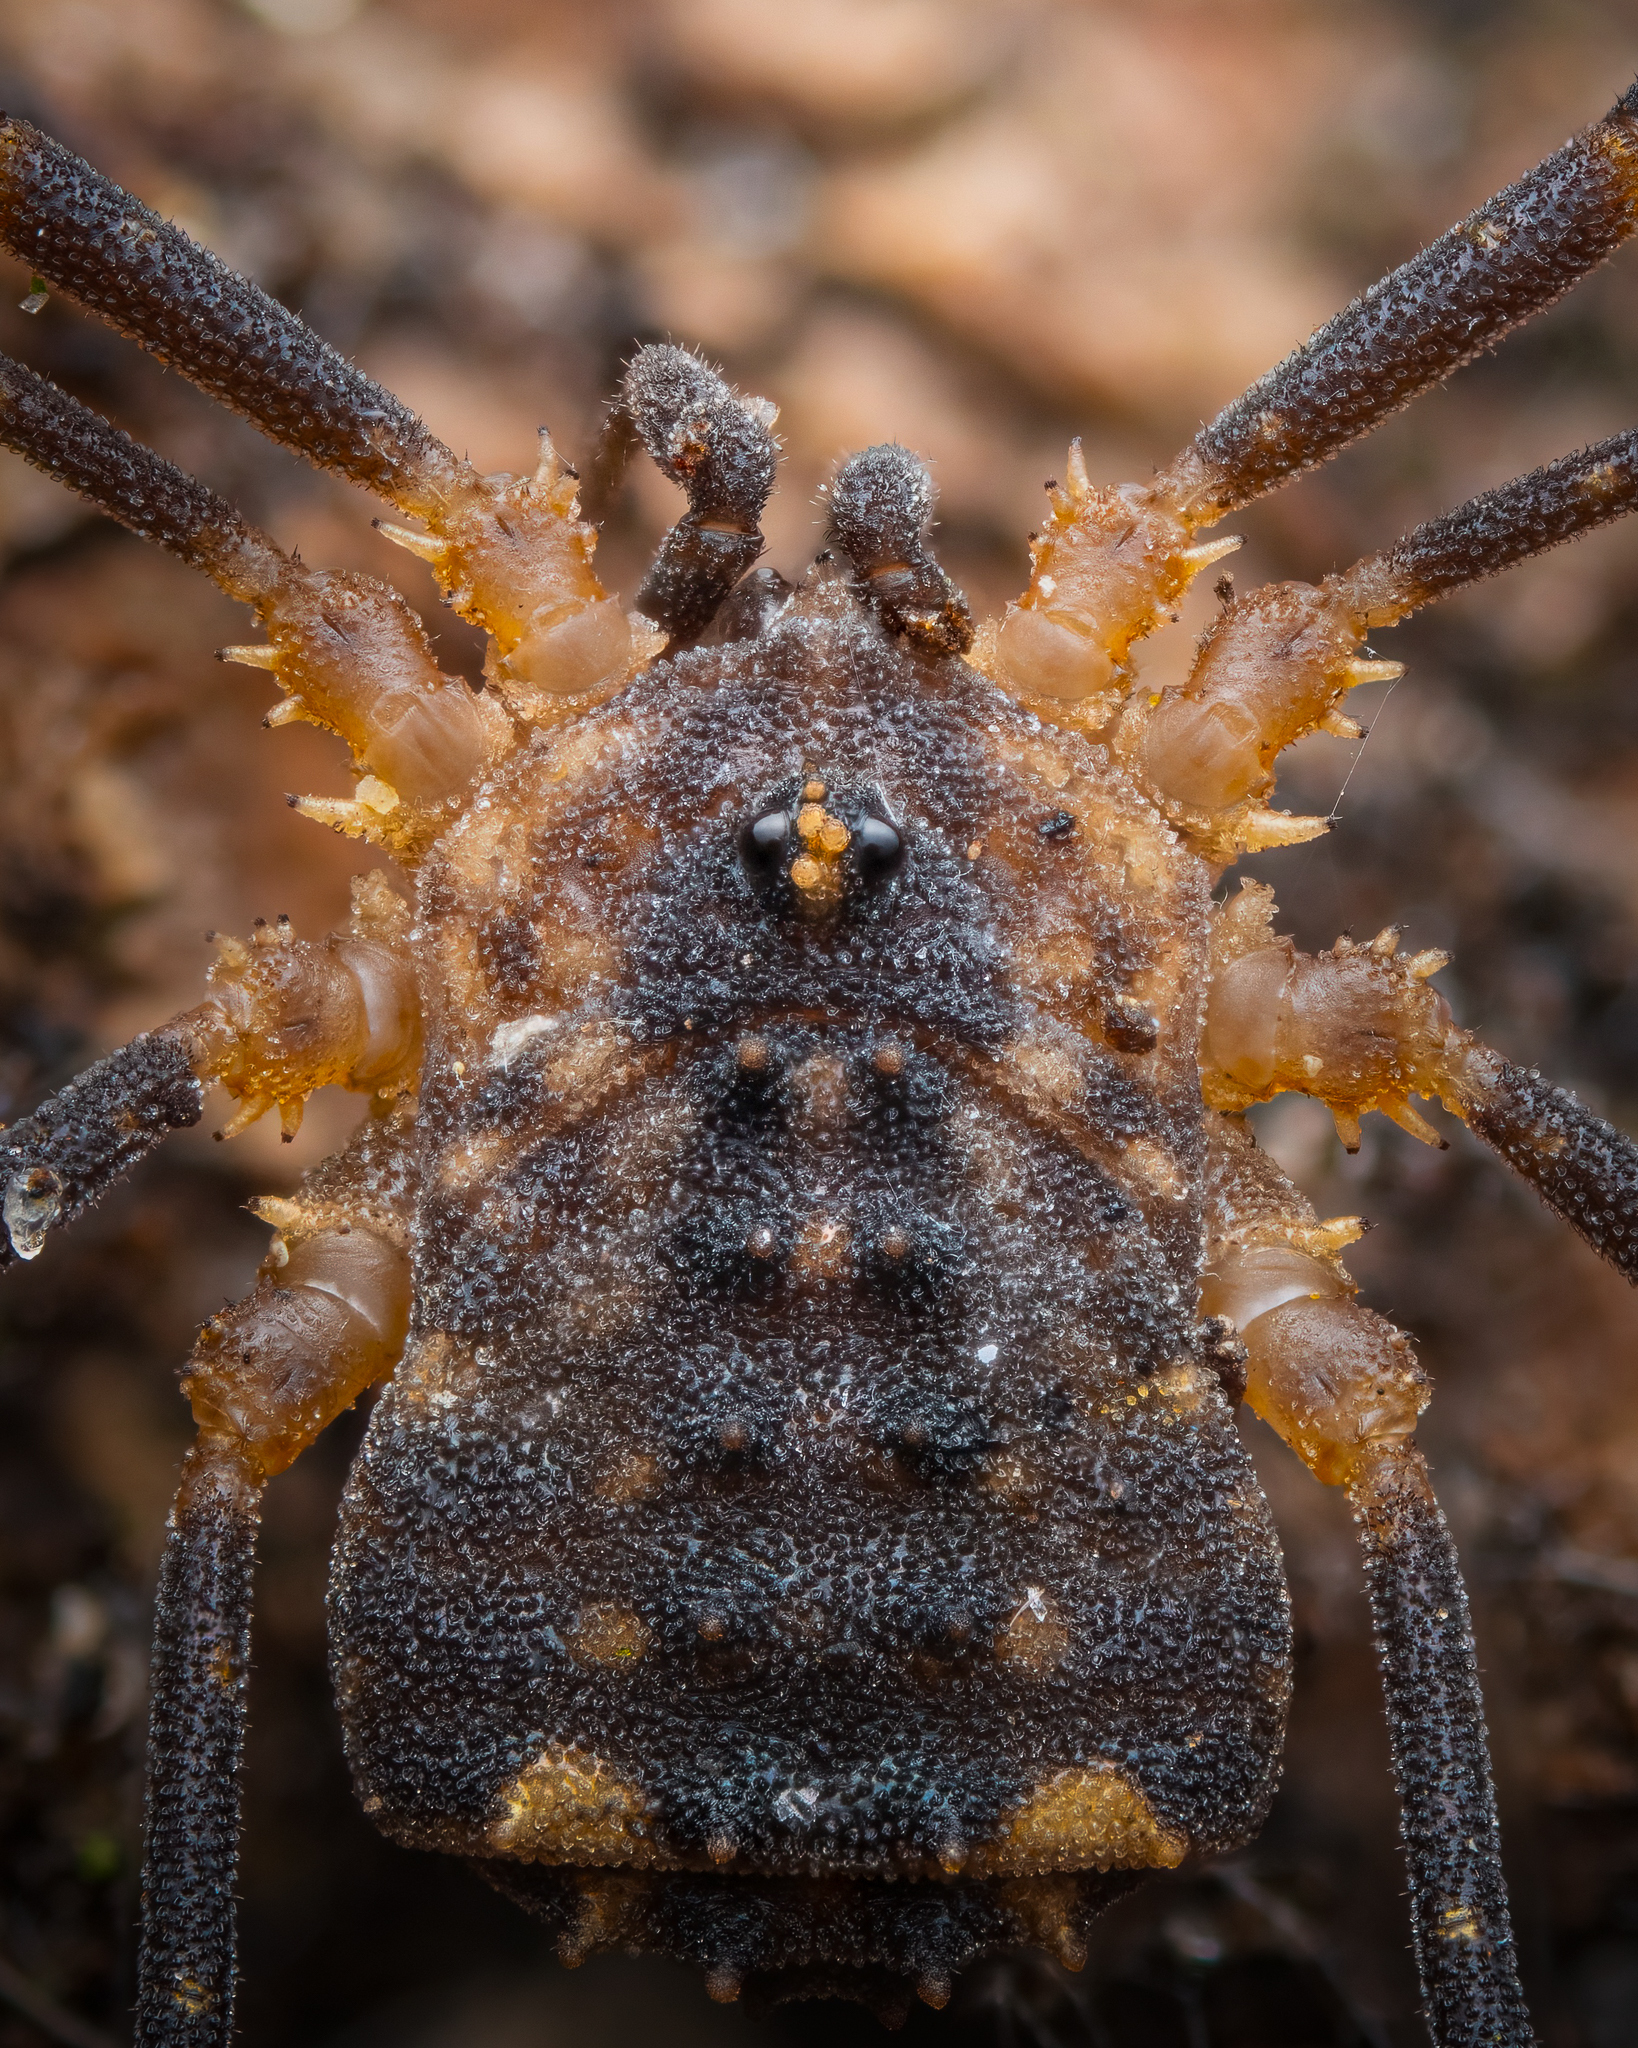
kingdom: Animalia
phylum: Arthropoda
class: Arachnida
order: Opiliones
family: Sclerosomatidae
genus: Astrobunus
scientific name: Astrobunus laevipes
